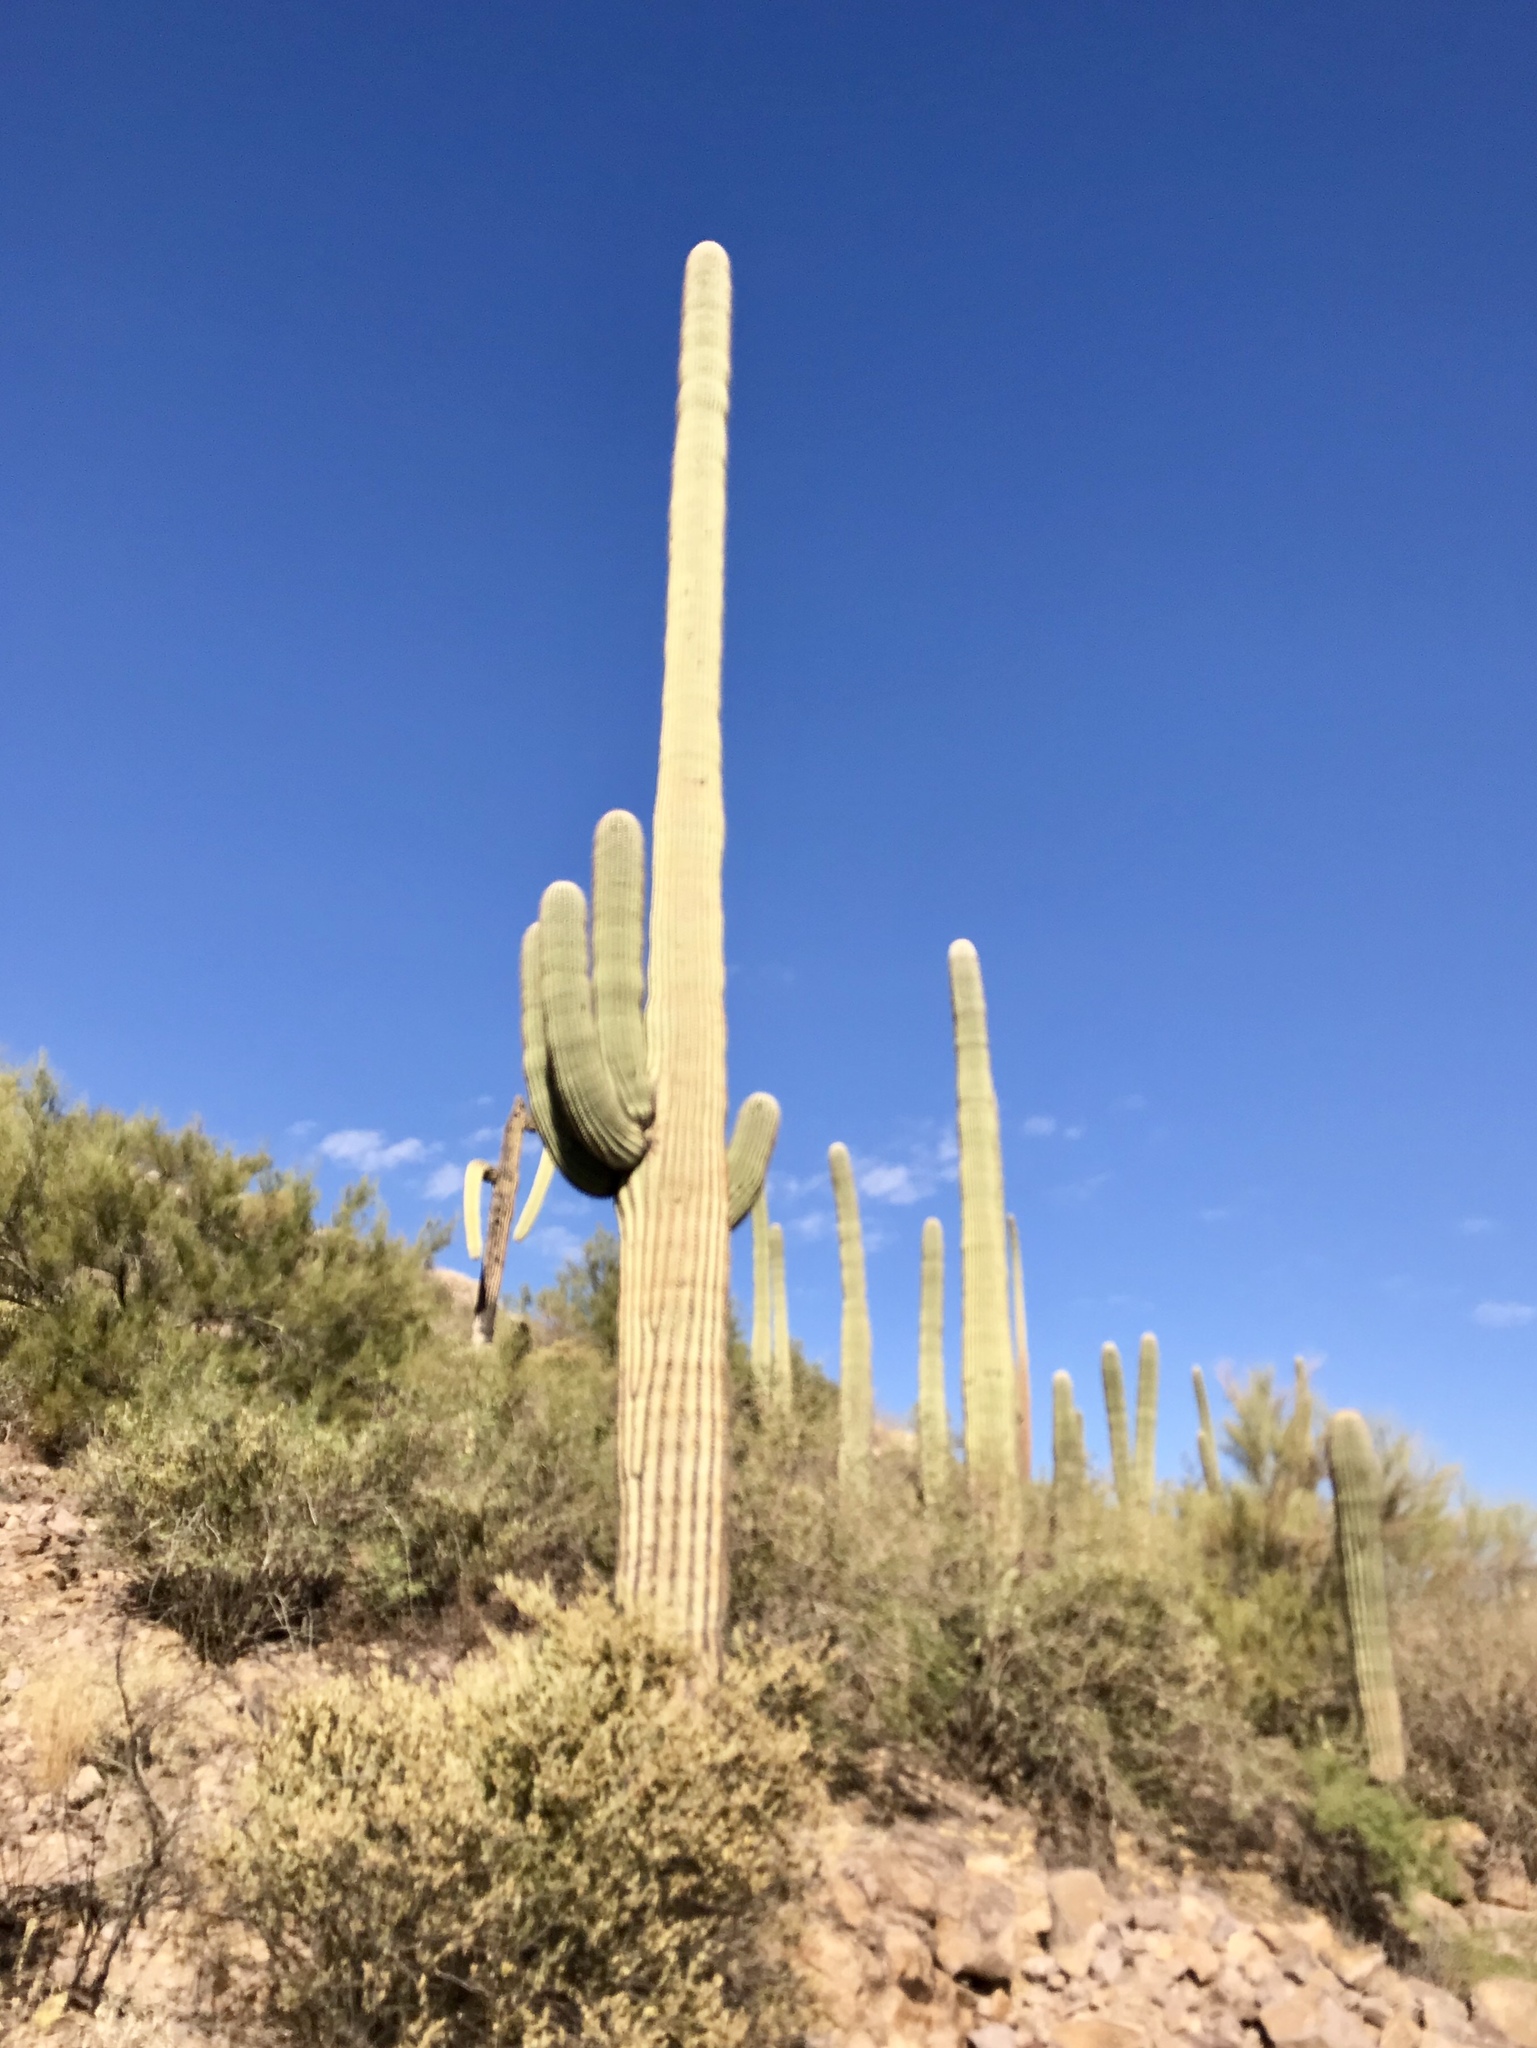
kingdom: Plantae
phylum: Tracheophyta
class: Magnoliopsida
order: Caryophyllales
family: Cactaceae
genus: Carnegiea
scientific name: Carnegiea gigantea
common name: Saguaro
